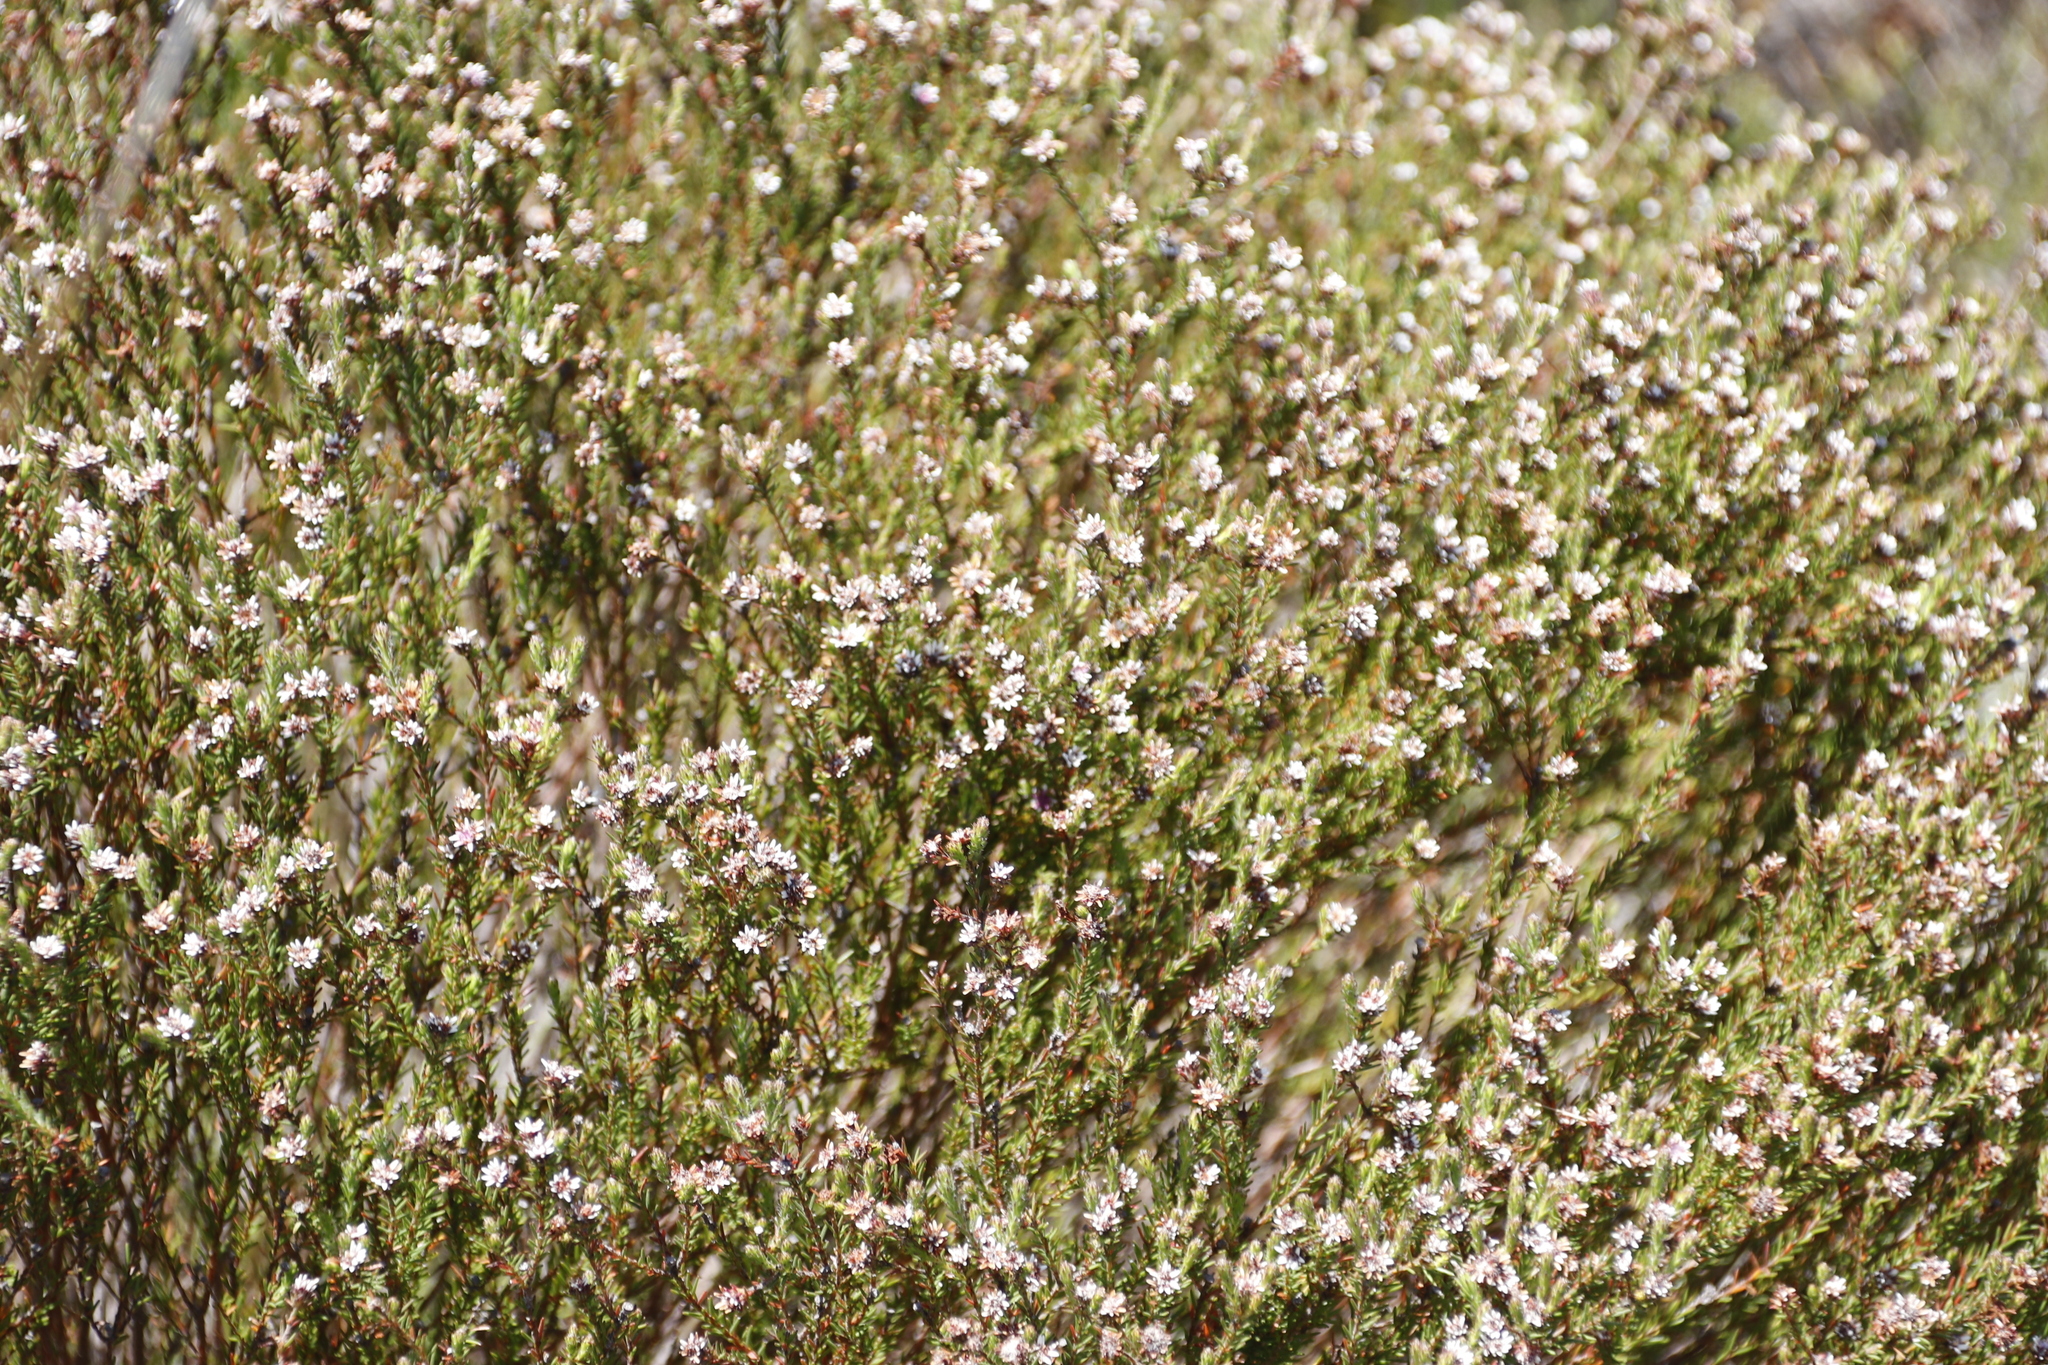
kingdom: Plantae
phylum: Tracheophyta
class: Magnoliopsida
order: Bruniales
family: Bruniaceae
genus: Staavia
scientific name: Staavia radiata
